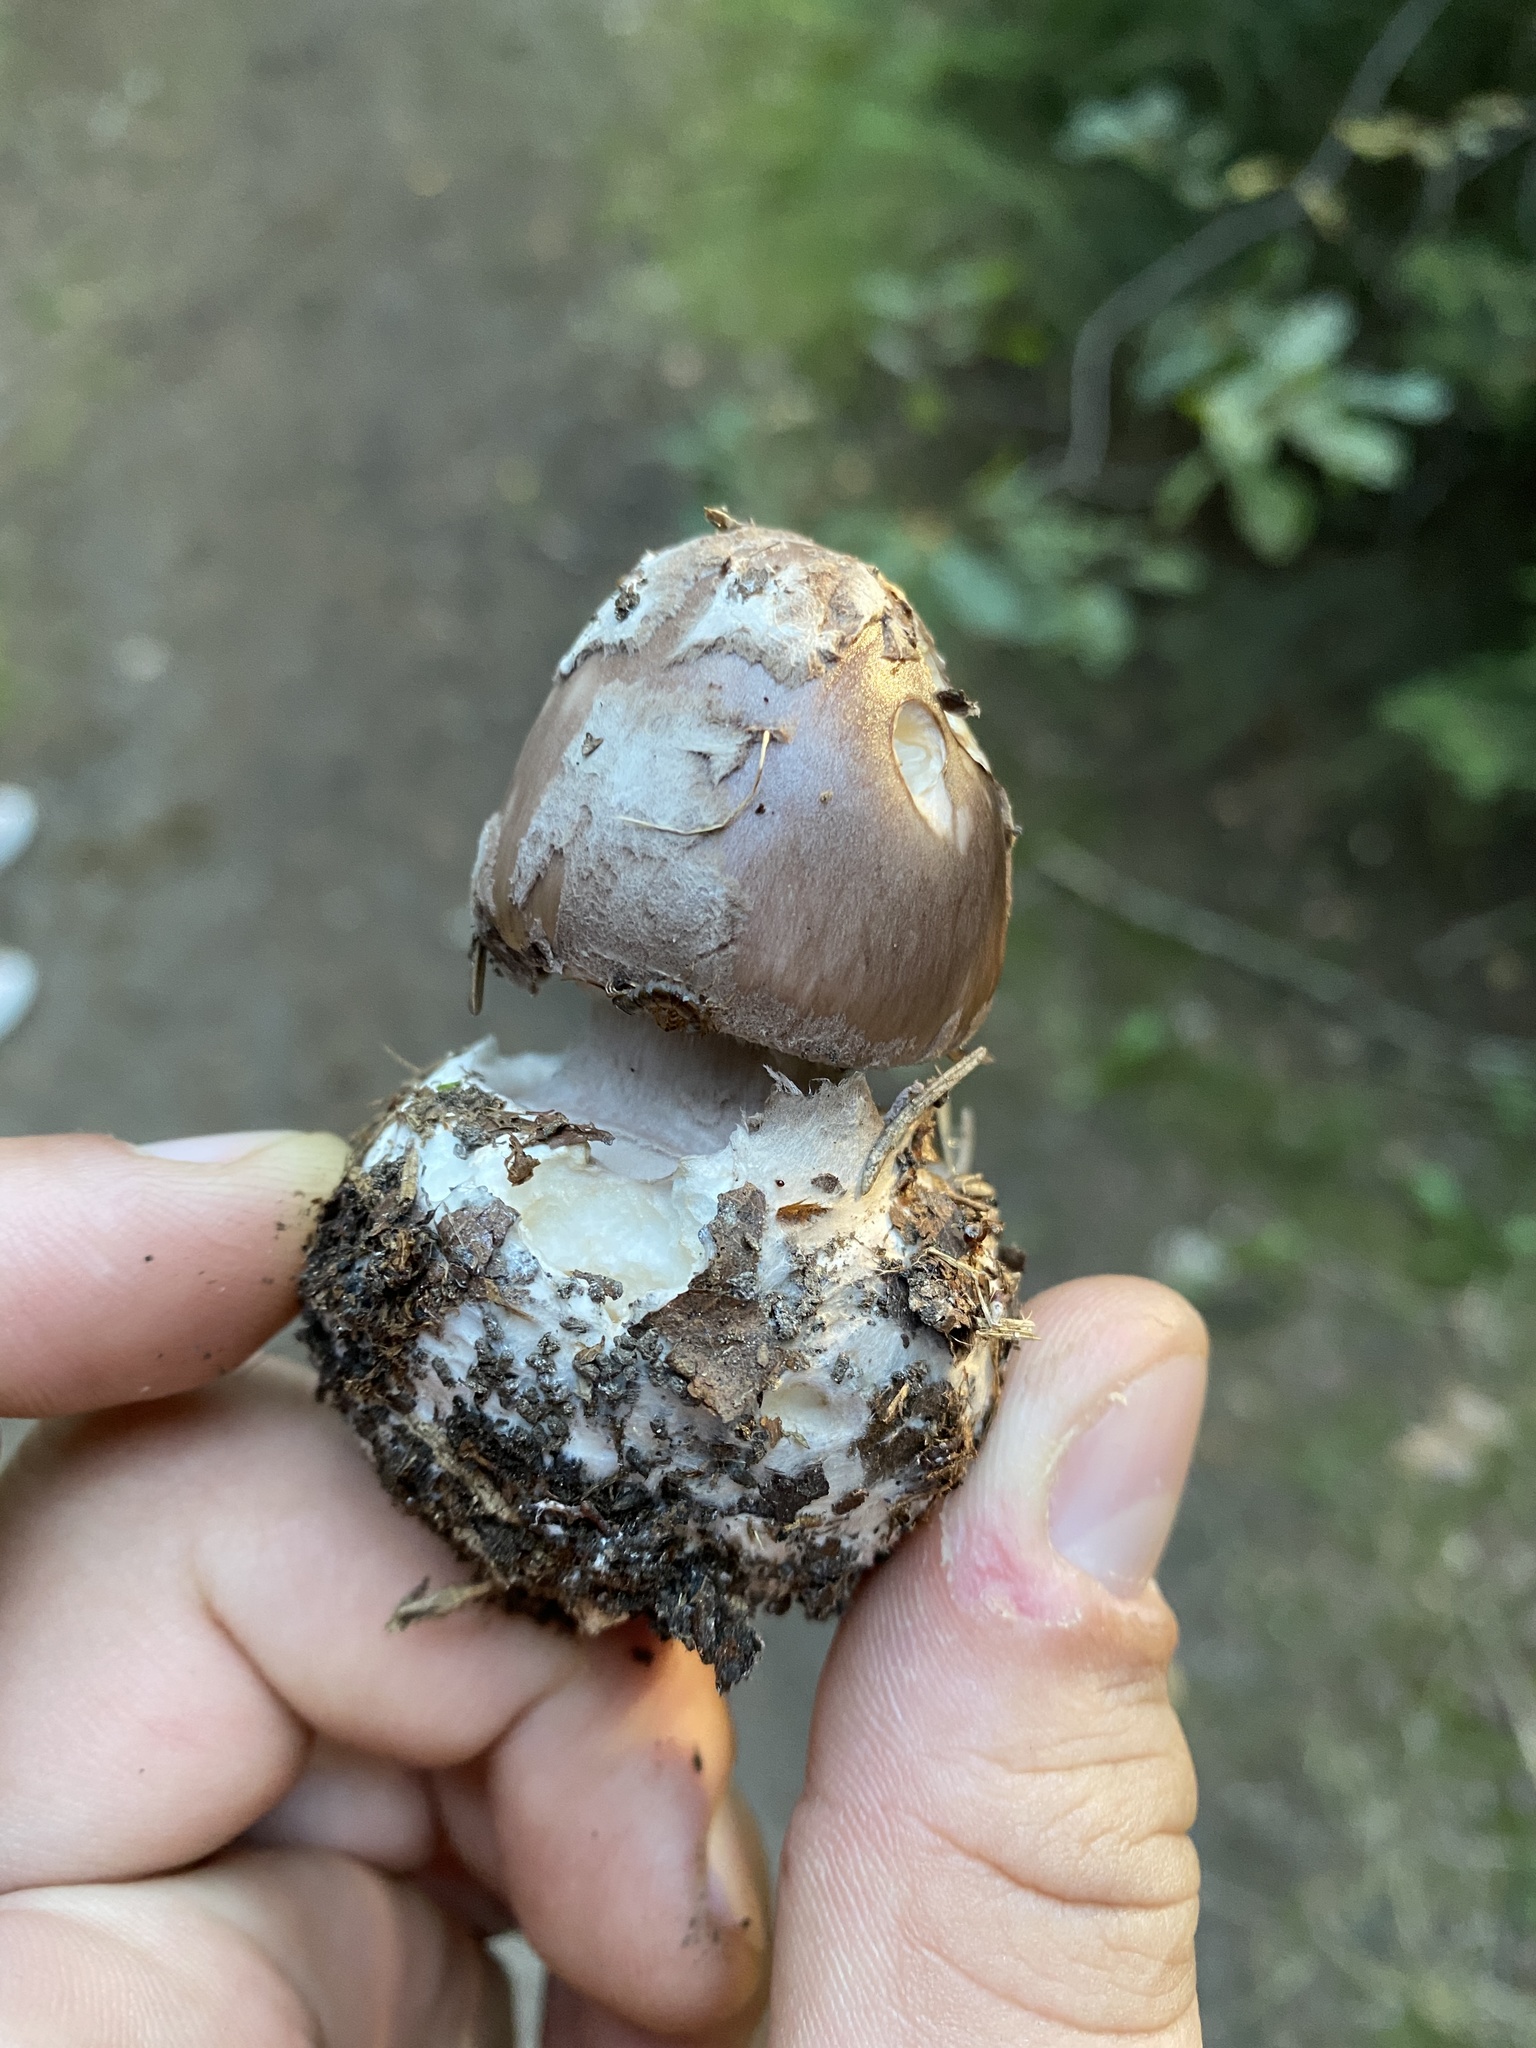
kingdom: Fungi
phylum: Basidiomycota
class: Agaricomycetes
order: Agaricales
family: Amanitaceae
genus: Amanita
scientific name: Amanita porphyria
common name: Grey veiled amanita
